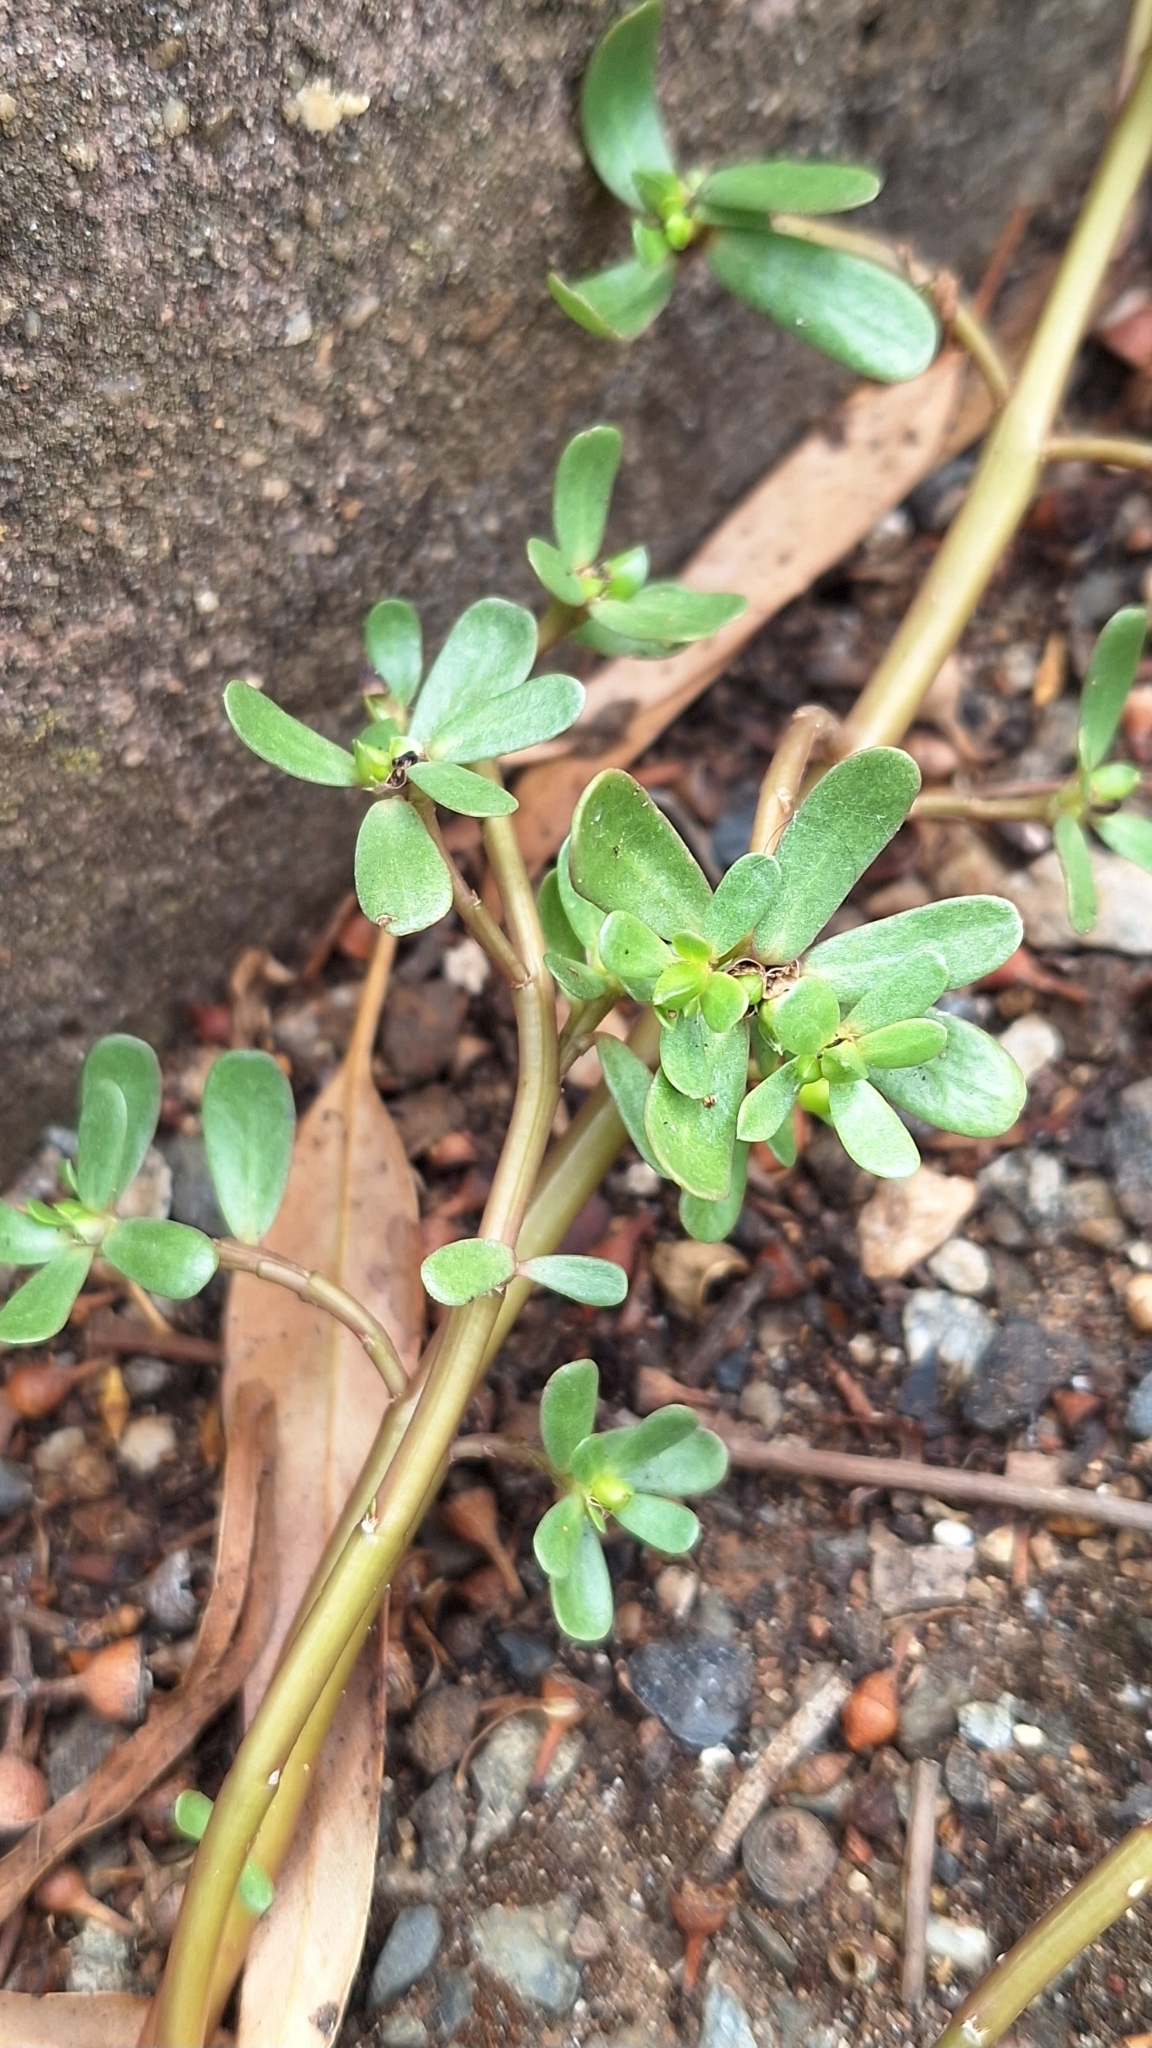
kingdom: Plantae
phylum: Tracheophyta
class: Magnoliopsida
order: Caryophyllales
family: Portulacaceae
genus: Portulaca
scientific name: Portulaca oleracea
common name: Common purslane
